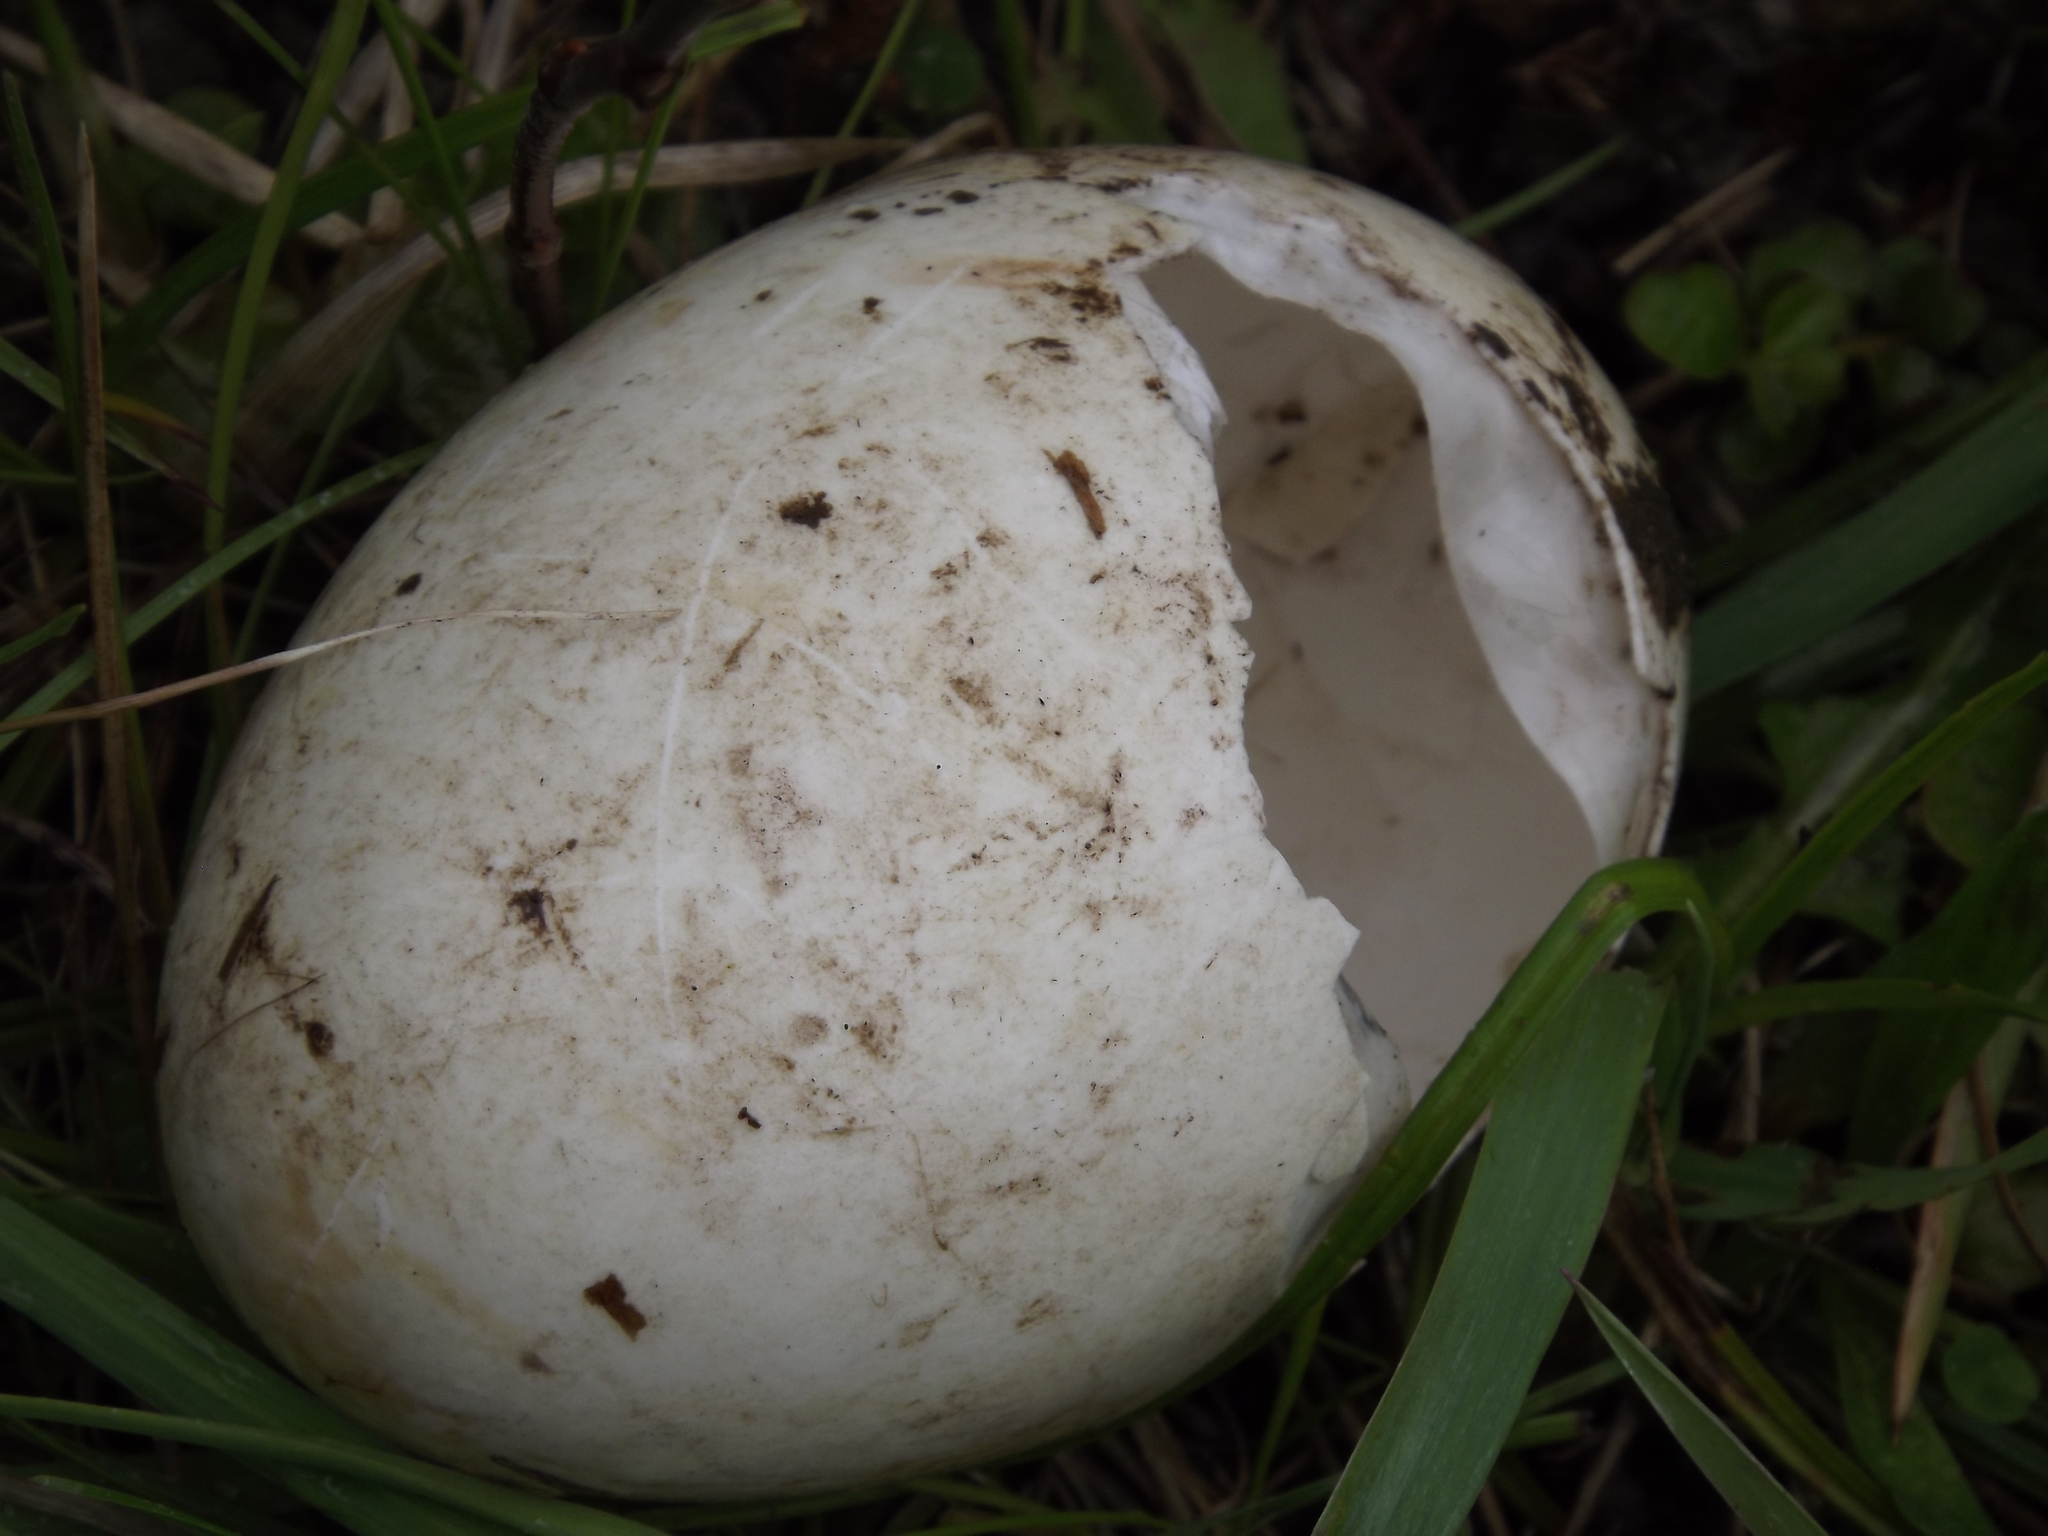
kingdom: Animalia
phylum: Chordata
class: Aves
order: Anseriformes
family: Anatidae
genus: Branta
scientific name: Branta canadensis
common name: Canada goose
